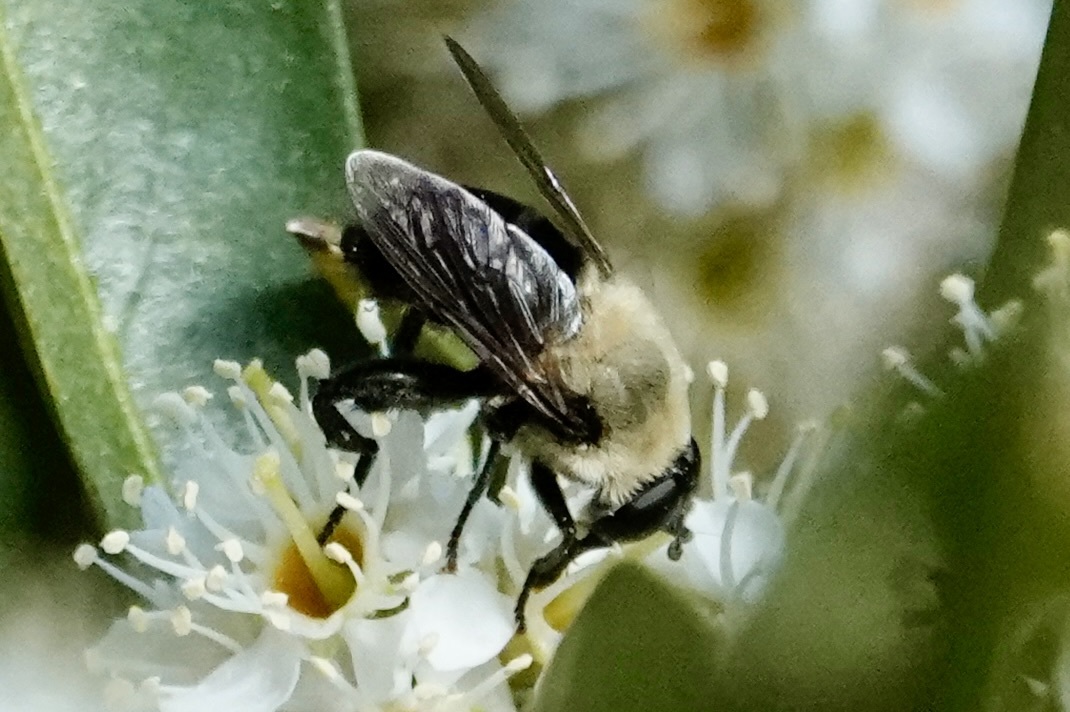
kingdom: Animalia
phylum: Arthropoda
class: Insecta
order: Diptera
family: Syrphidae
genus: Imatisma
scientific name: Imatisma bautias
